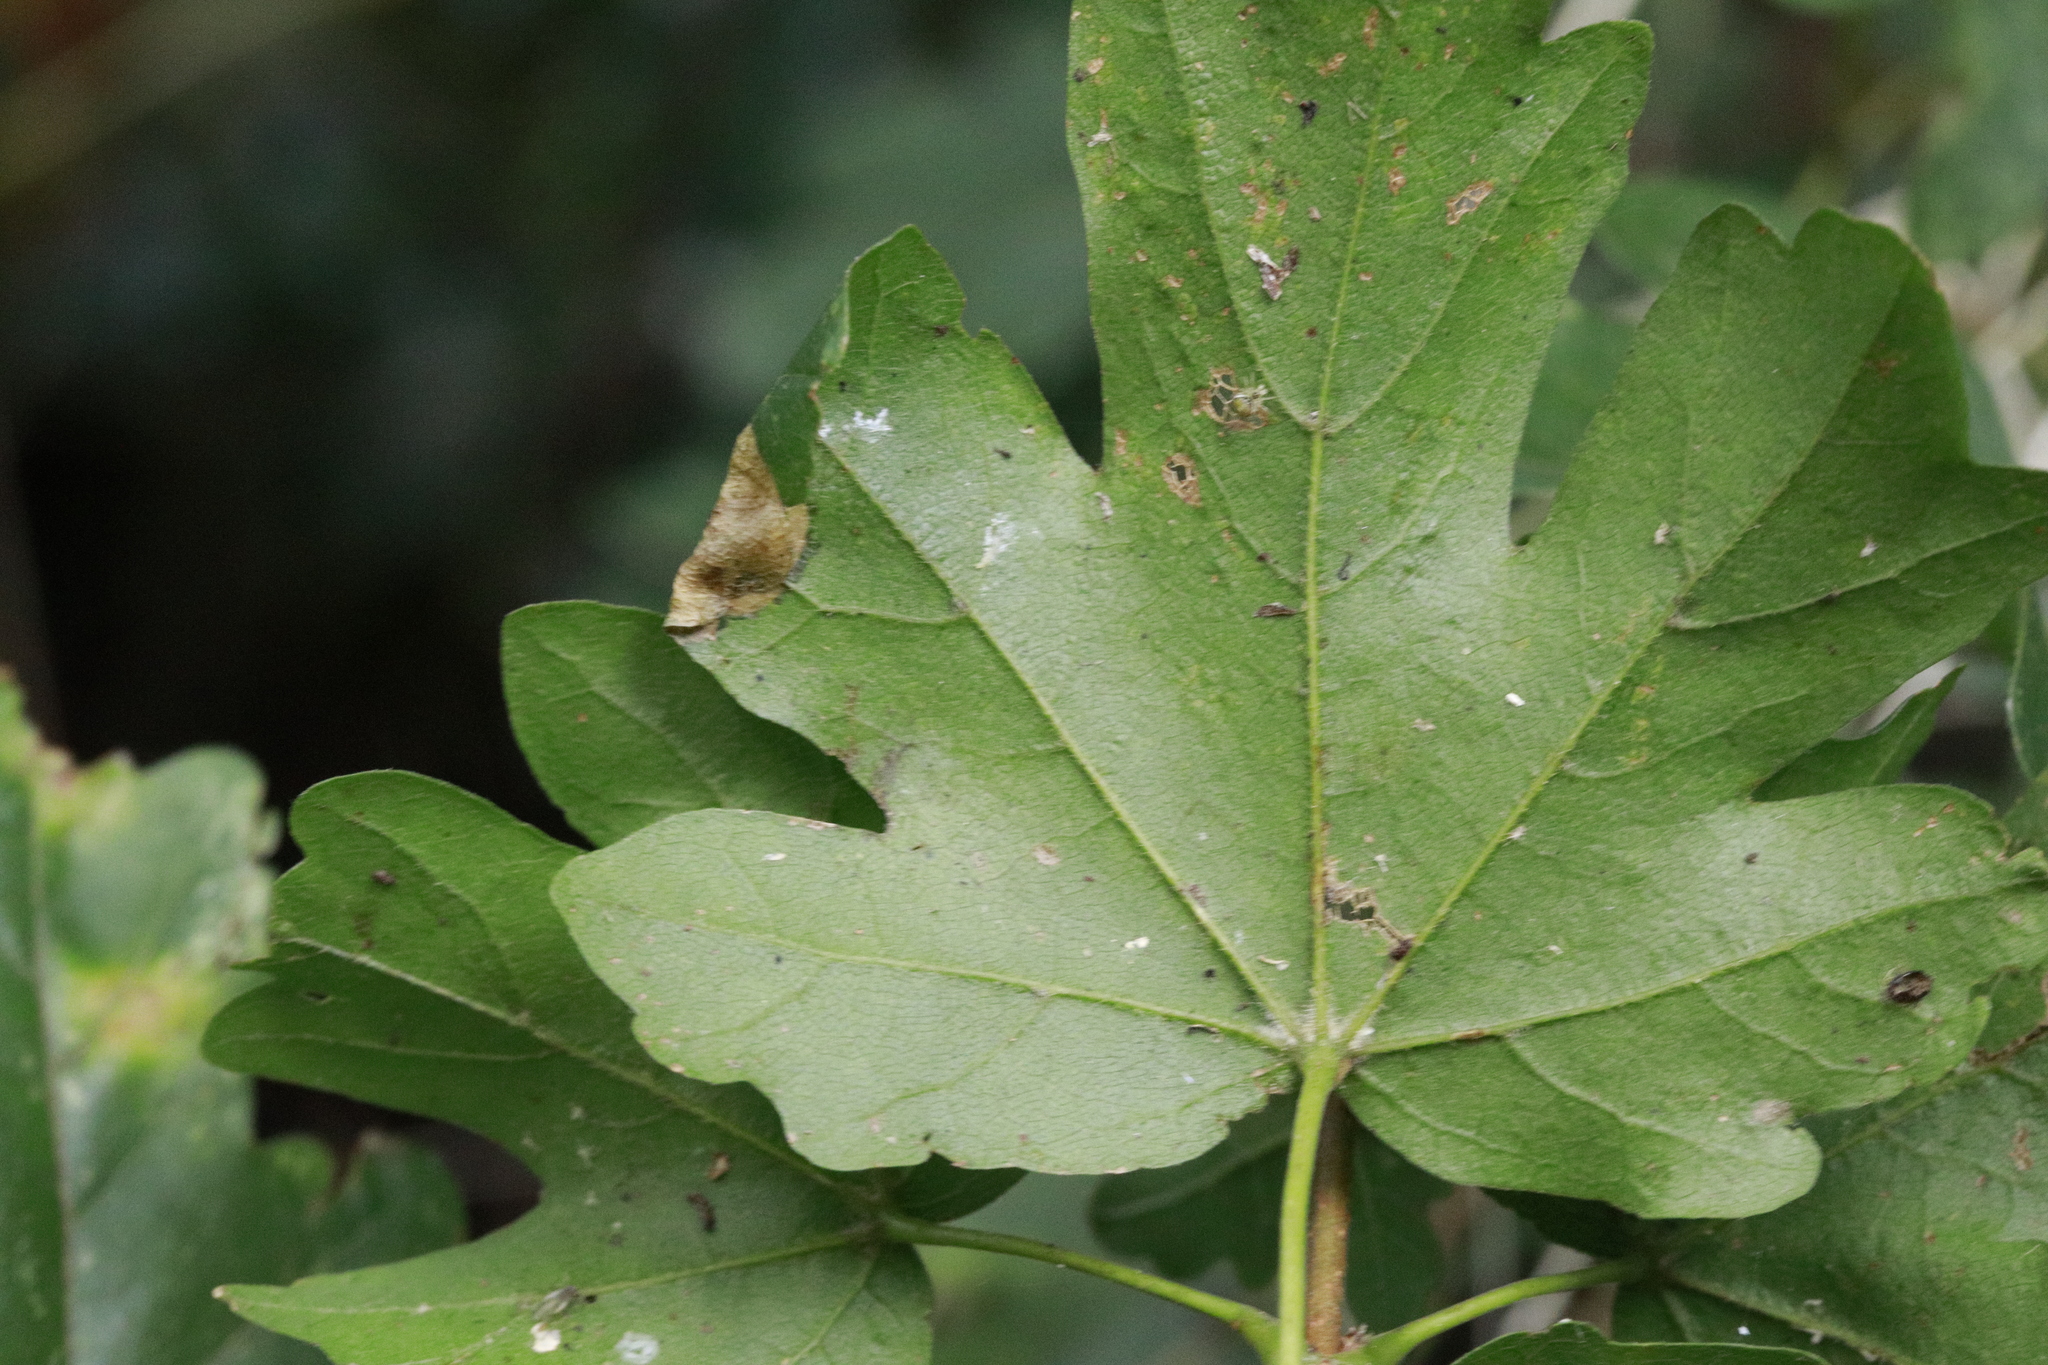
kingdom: Animalia
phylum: Arthropoda
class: Insecta
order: Lepidoptera
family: Gracillariidae
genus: Caloptilia
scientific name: Caloptilia rufipennella
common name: Small red slender
